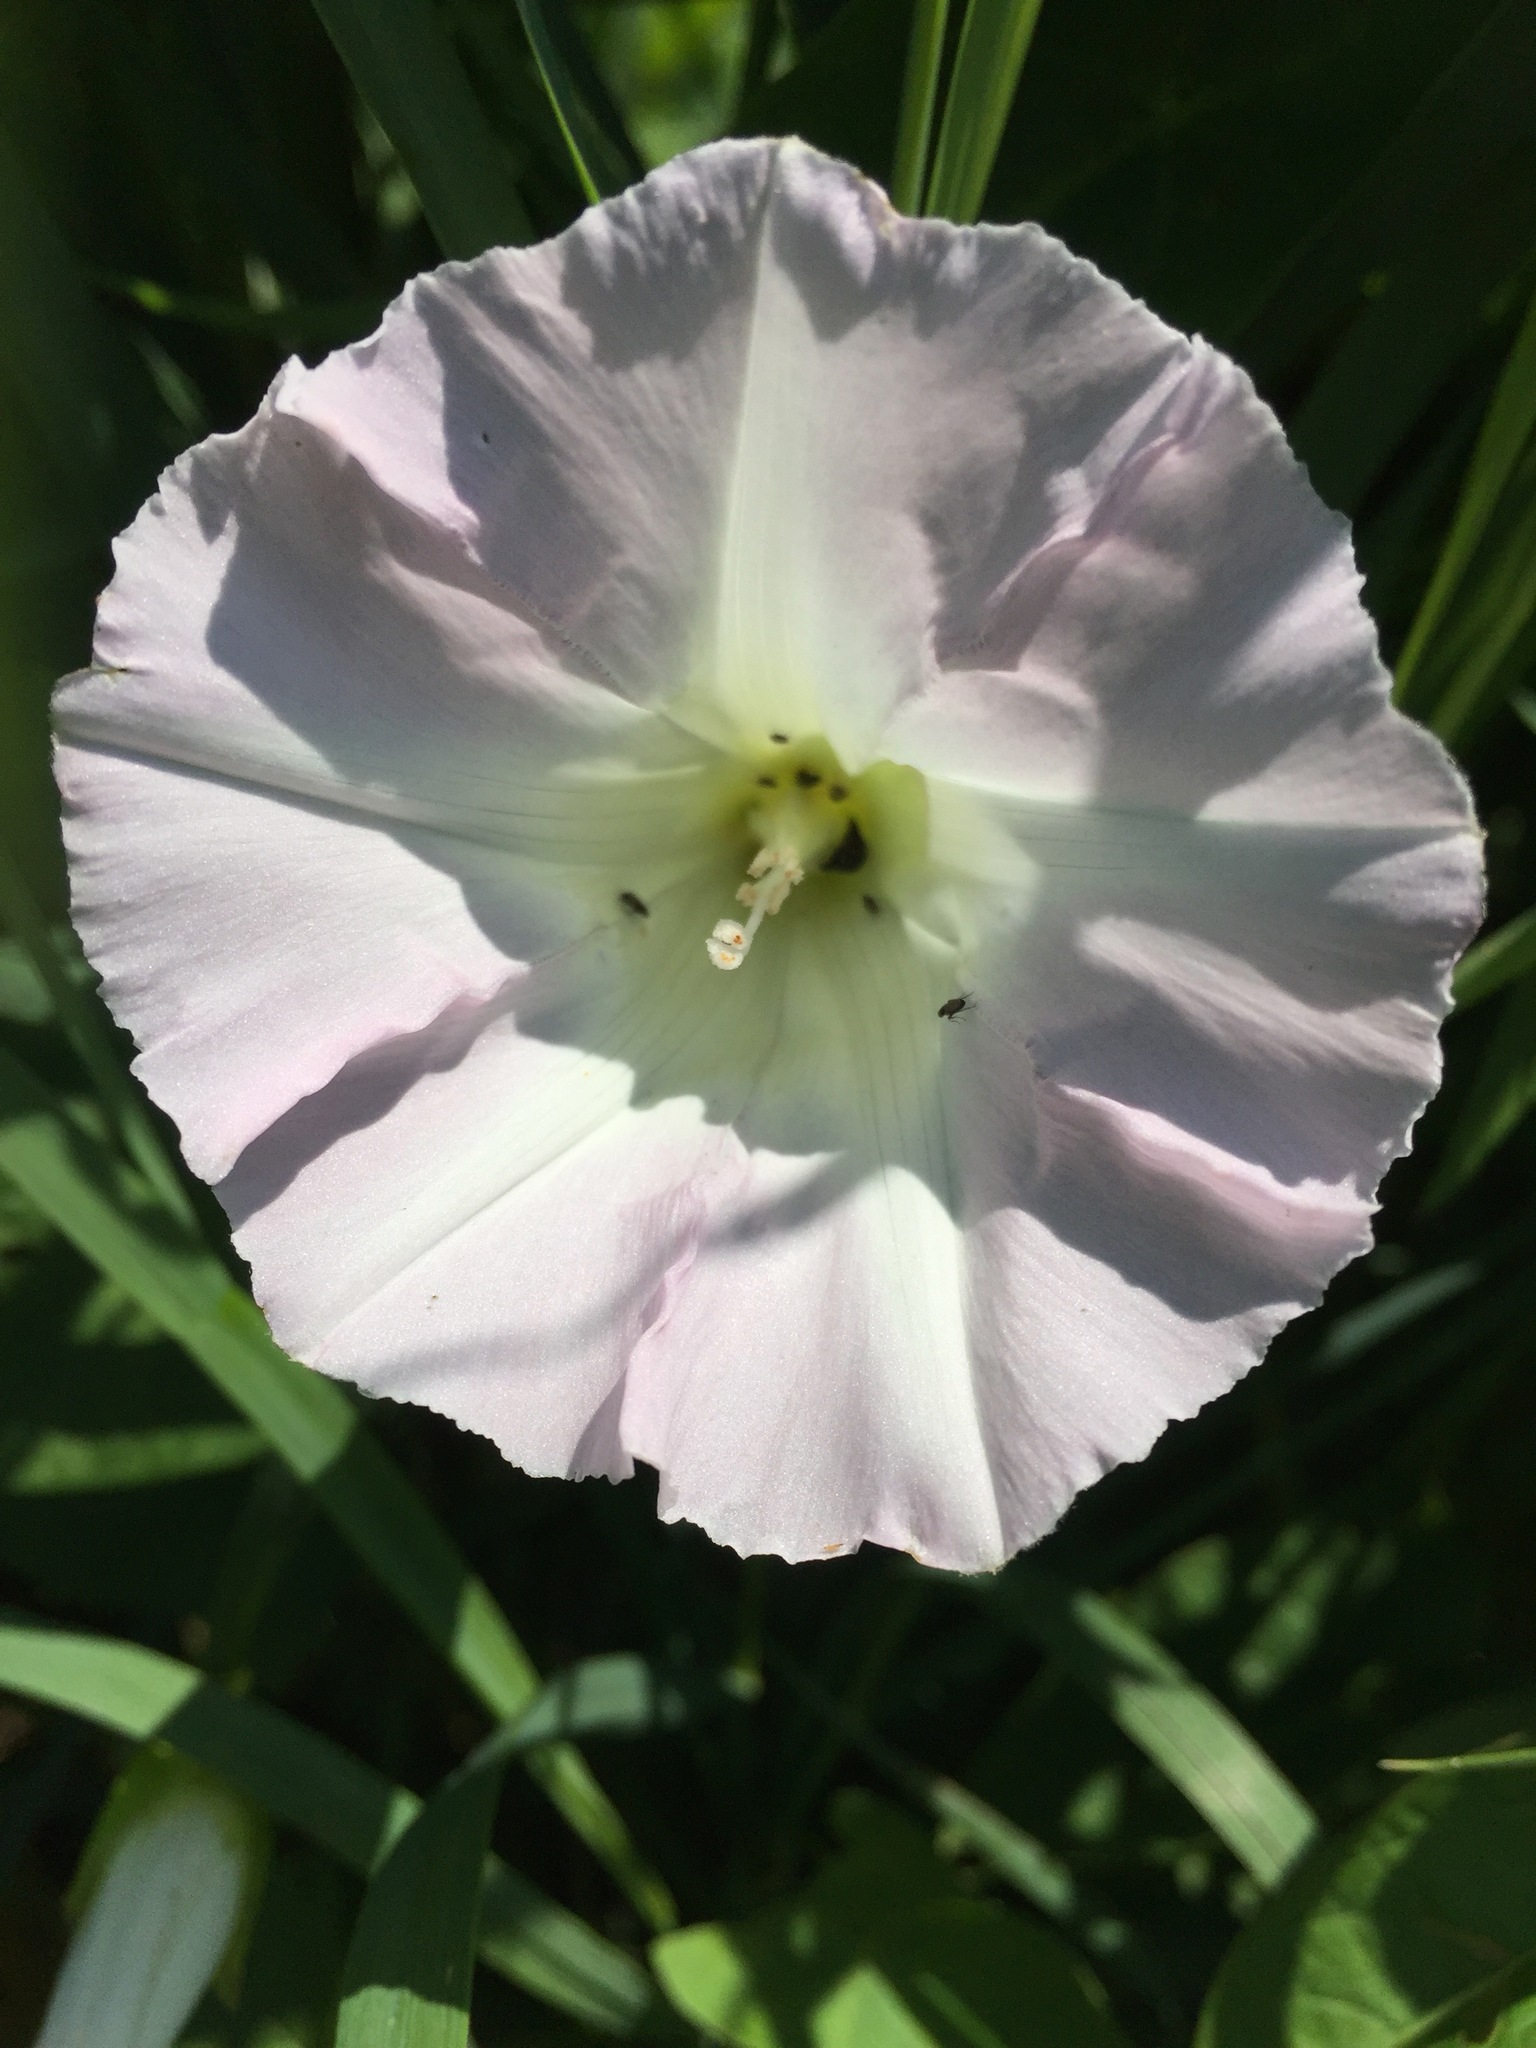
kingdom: Plantae
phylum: Tracheophyta
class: Magnoliopsida
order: Solanales
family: Convolvulaceae
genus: Calystegia
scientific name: Calystegia sepium
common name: Hedge bindweed
